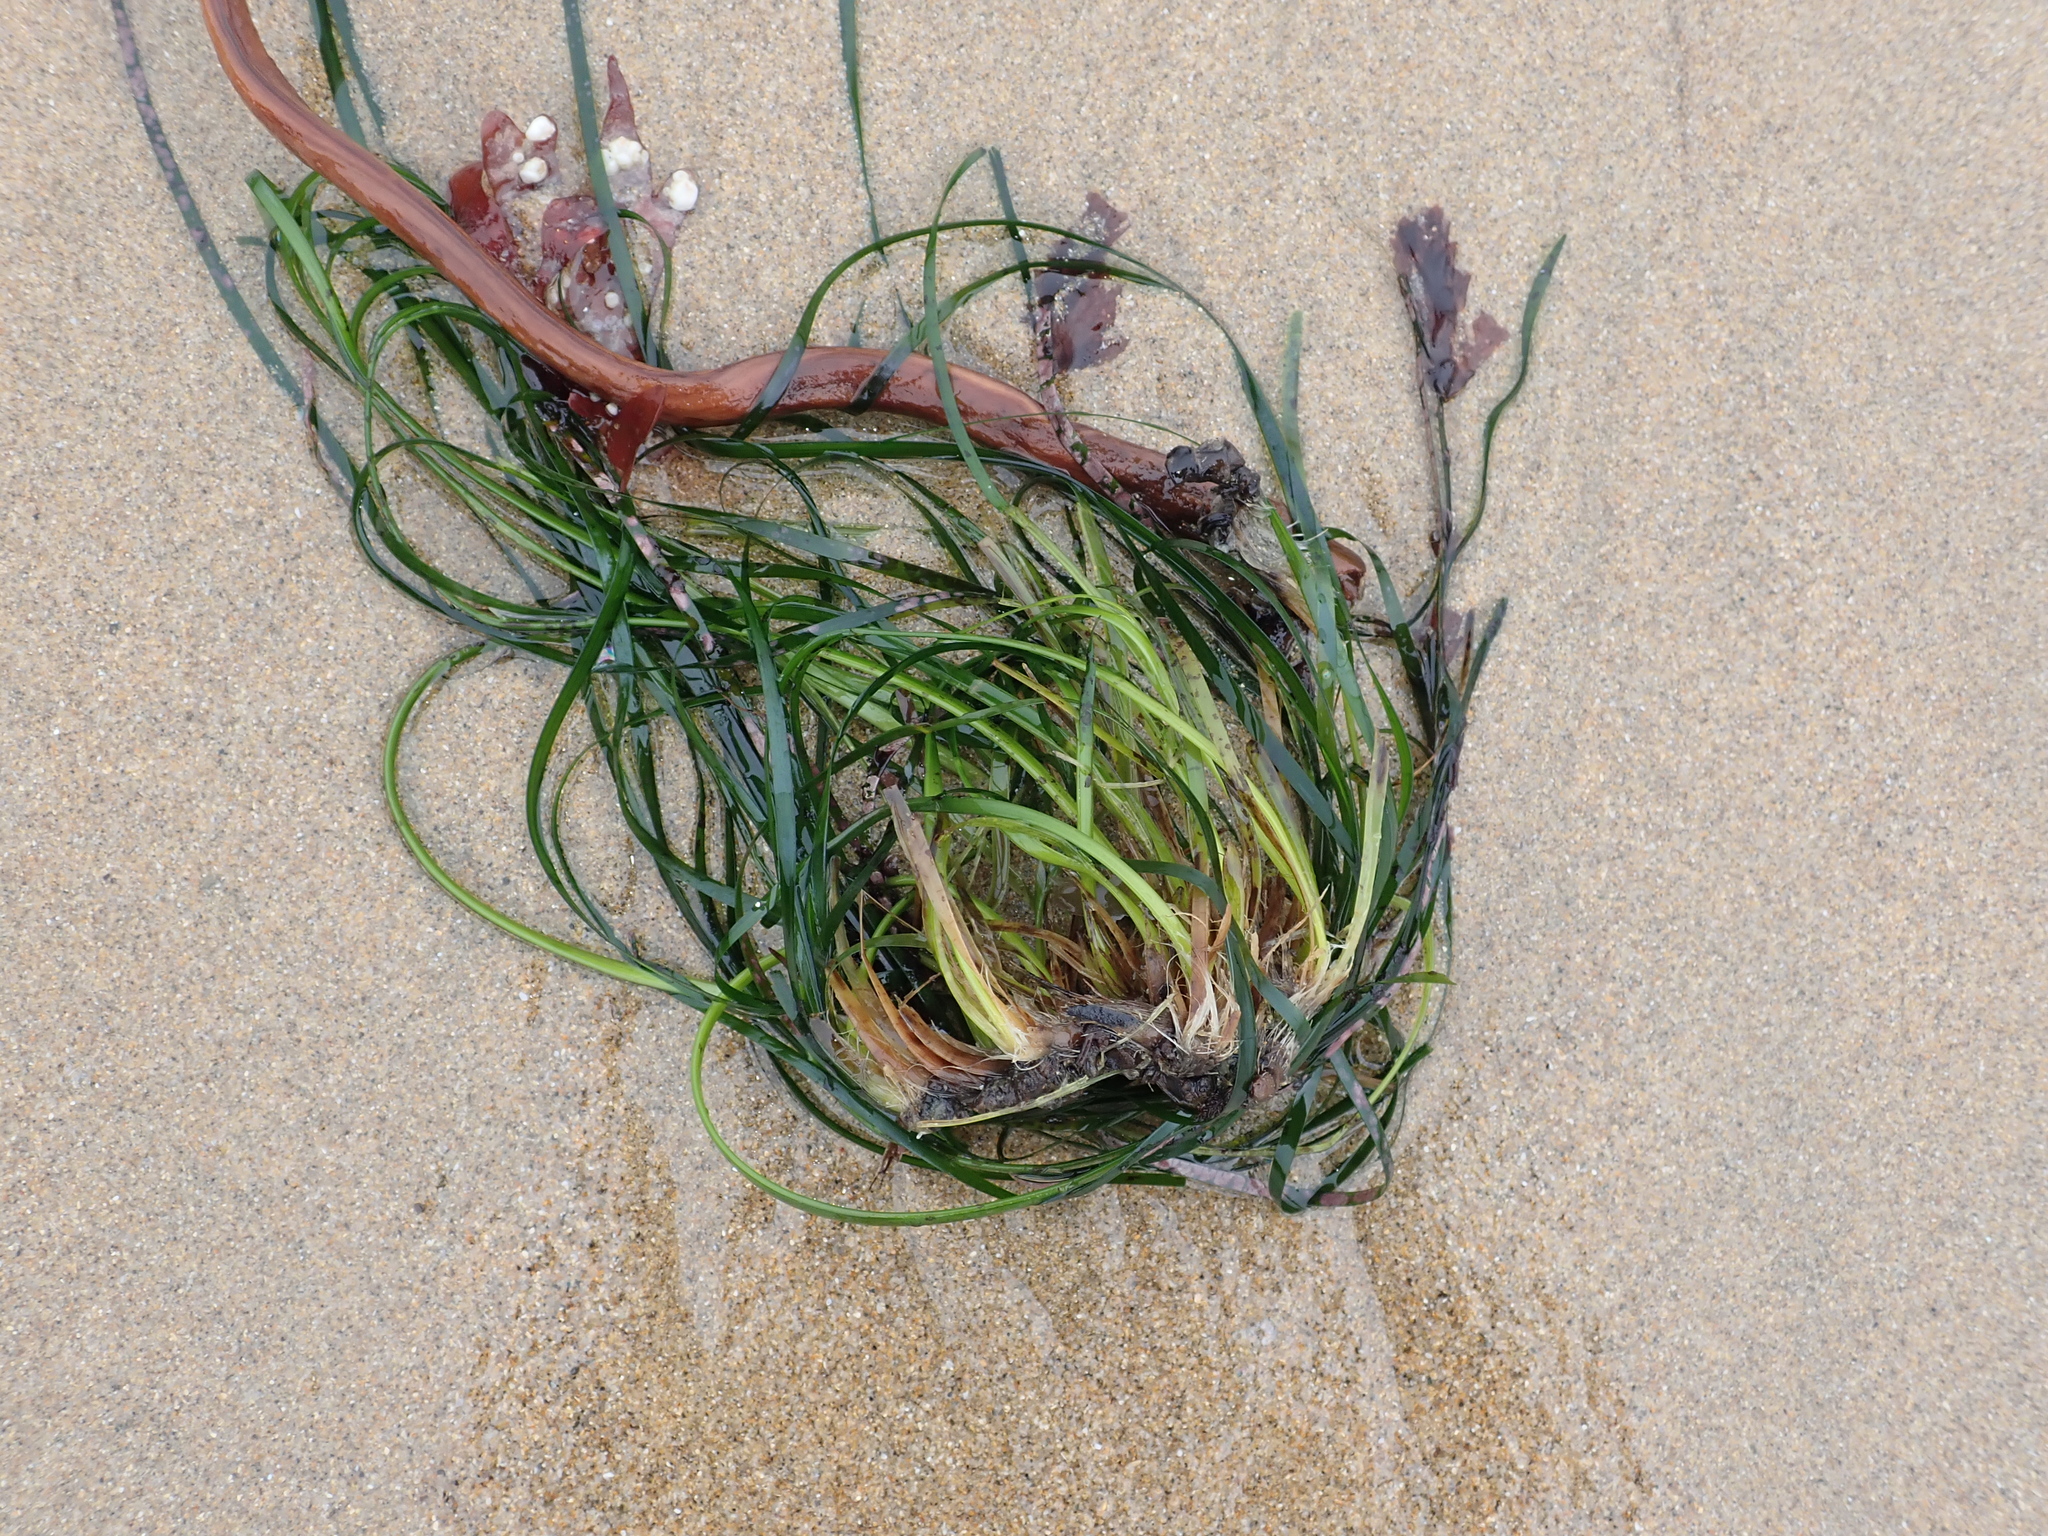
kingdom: Plantae
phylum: Tracheophyta
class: Liliopsida
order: Alismatales
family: Zosteraceae
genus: Phyllospadix
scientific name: Phyllospadix scouleri
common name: Species code: ps
